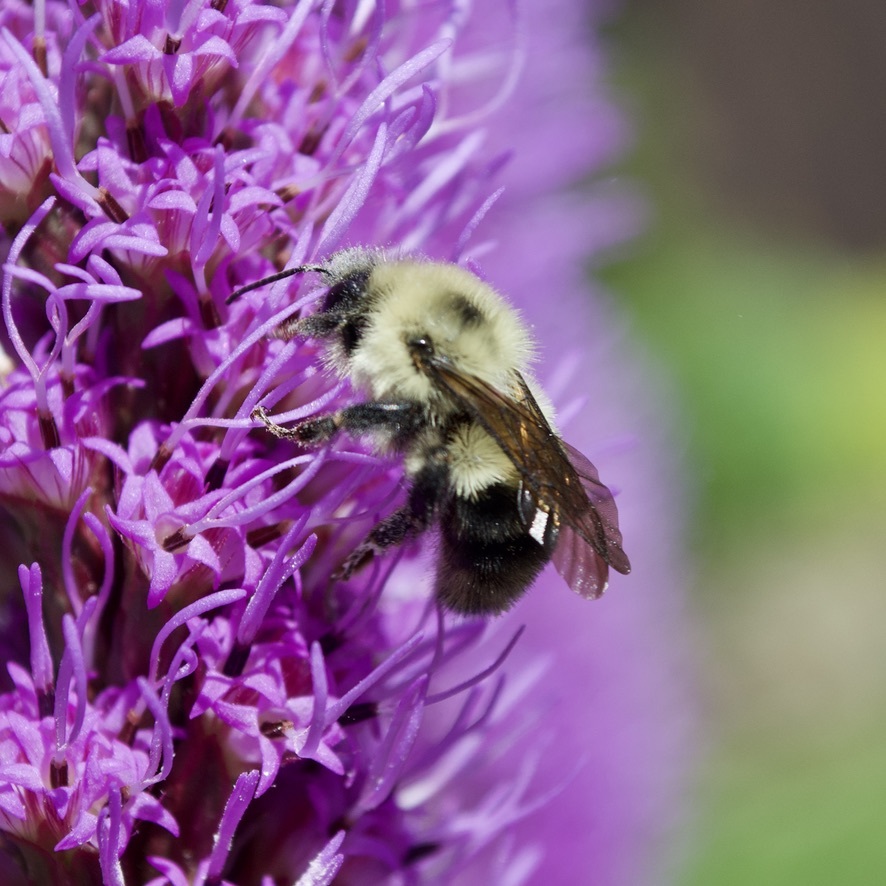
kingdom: Animalia
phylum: Arthropoda
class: Insecta
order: Hymenoptera
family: Apidae
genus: Bombus
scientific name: Bombus bimaculatus
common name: Two-spotted bumble bee
